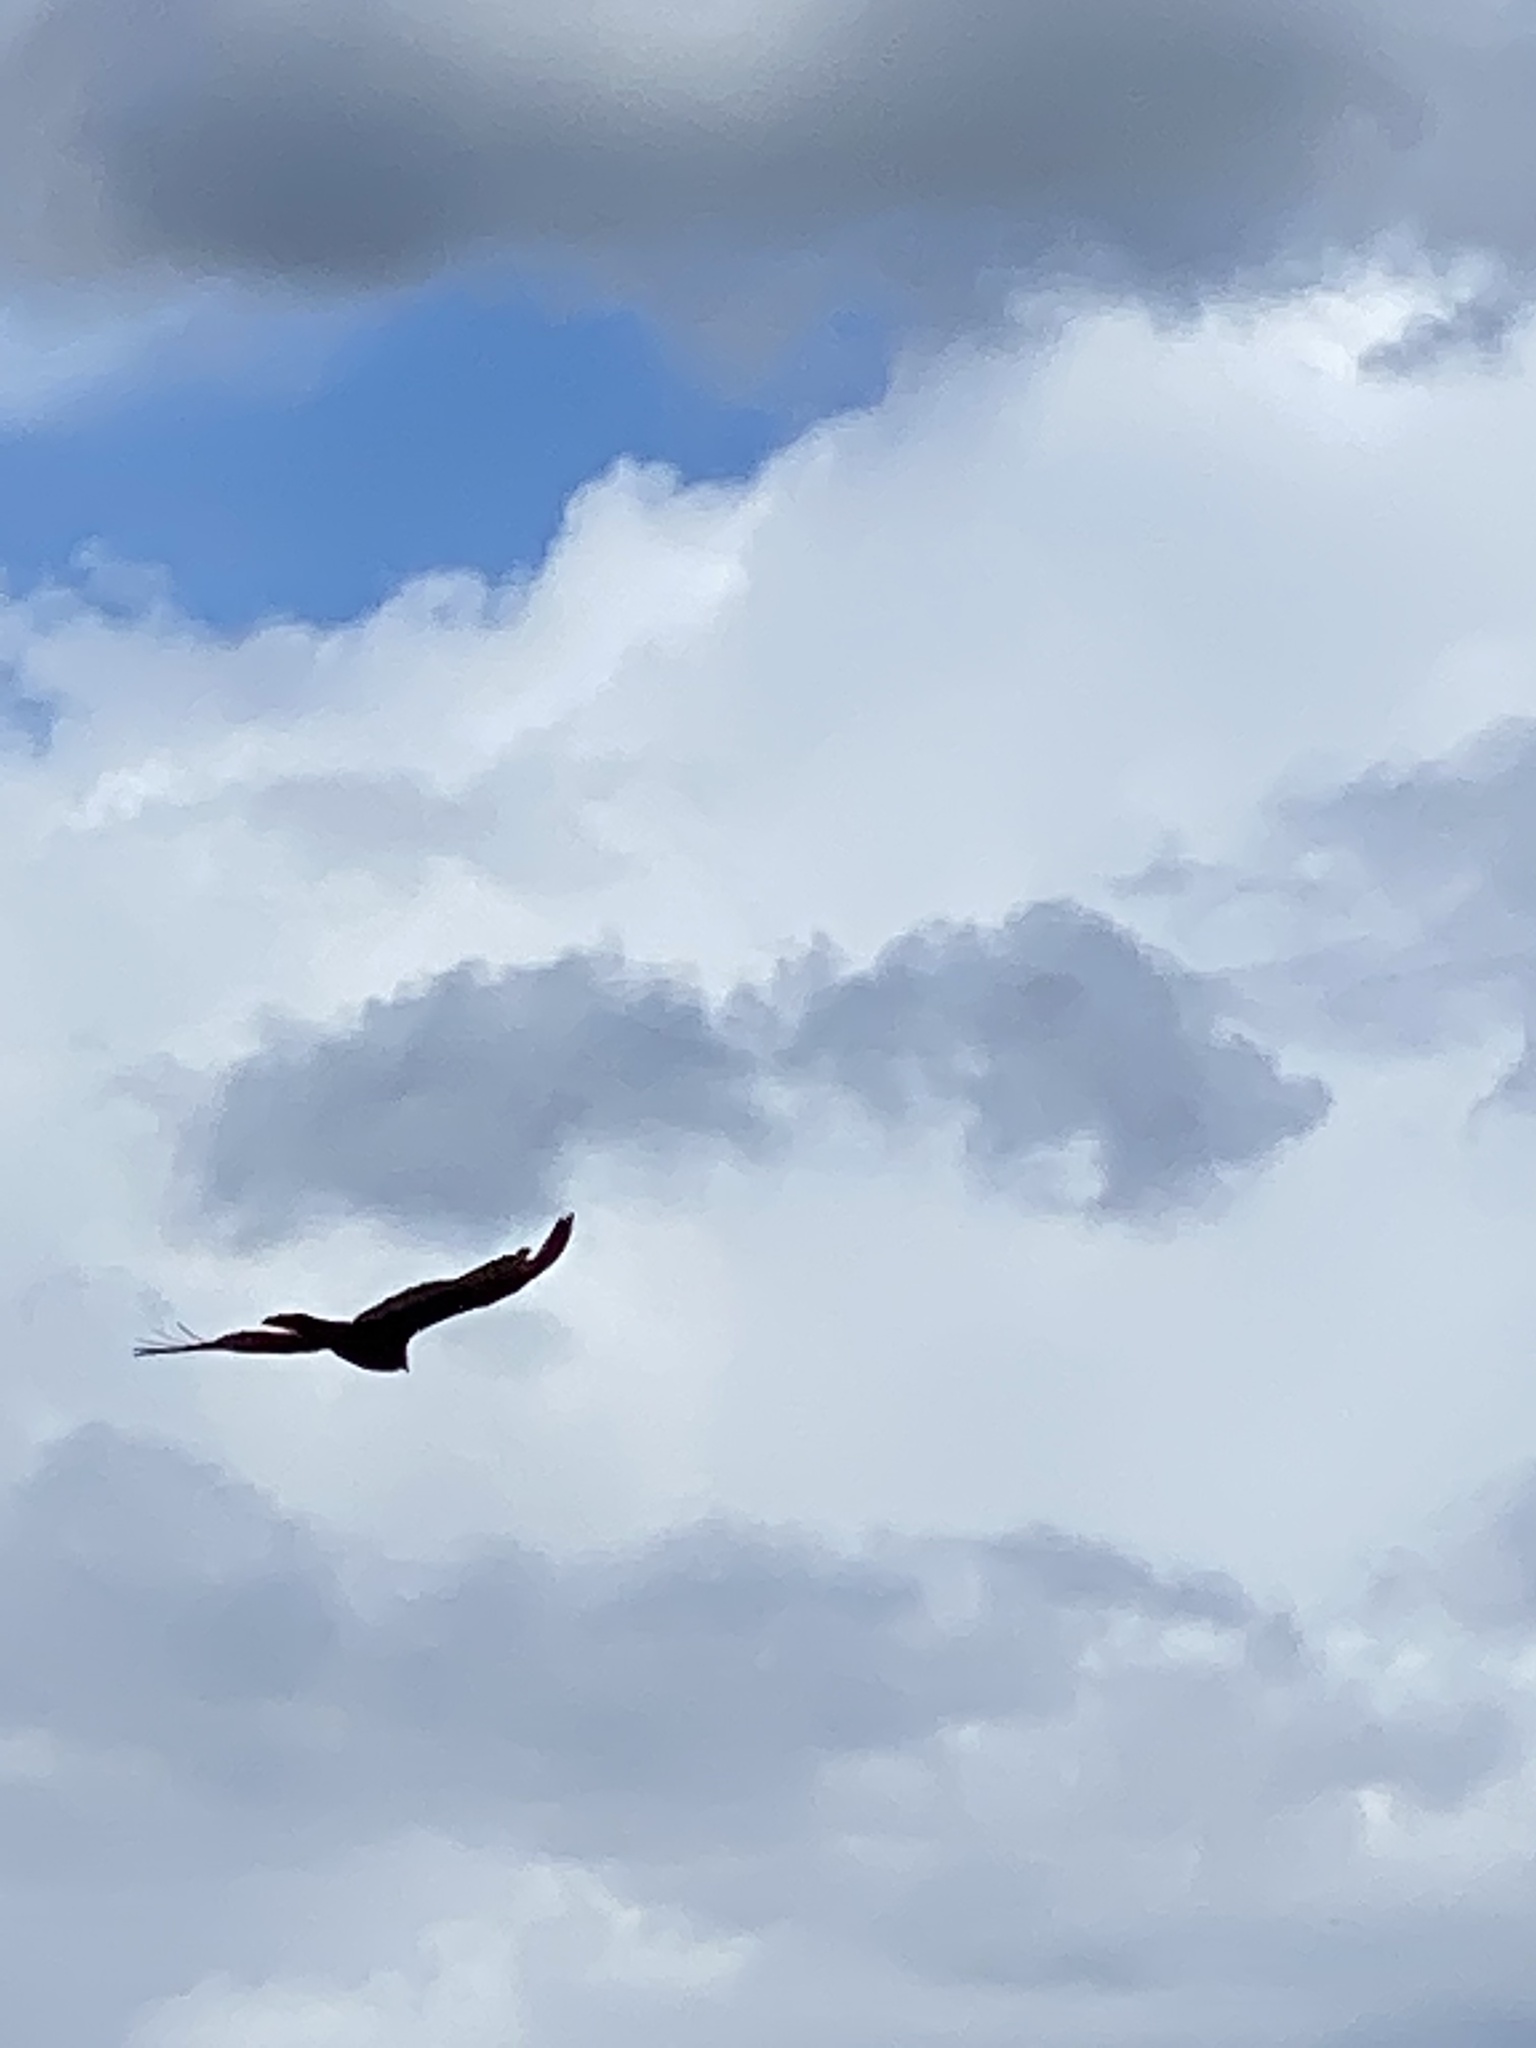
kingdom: Animalia
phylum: Chordata
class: Aves
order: Accipitriformes
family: Cathartidae
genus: Cathartes
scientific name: Cathartes aura
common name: Turkey vulture
